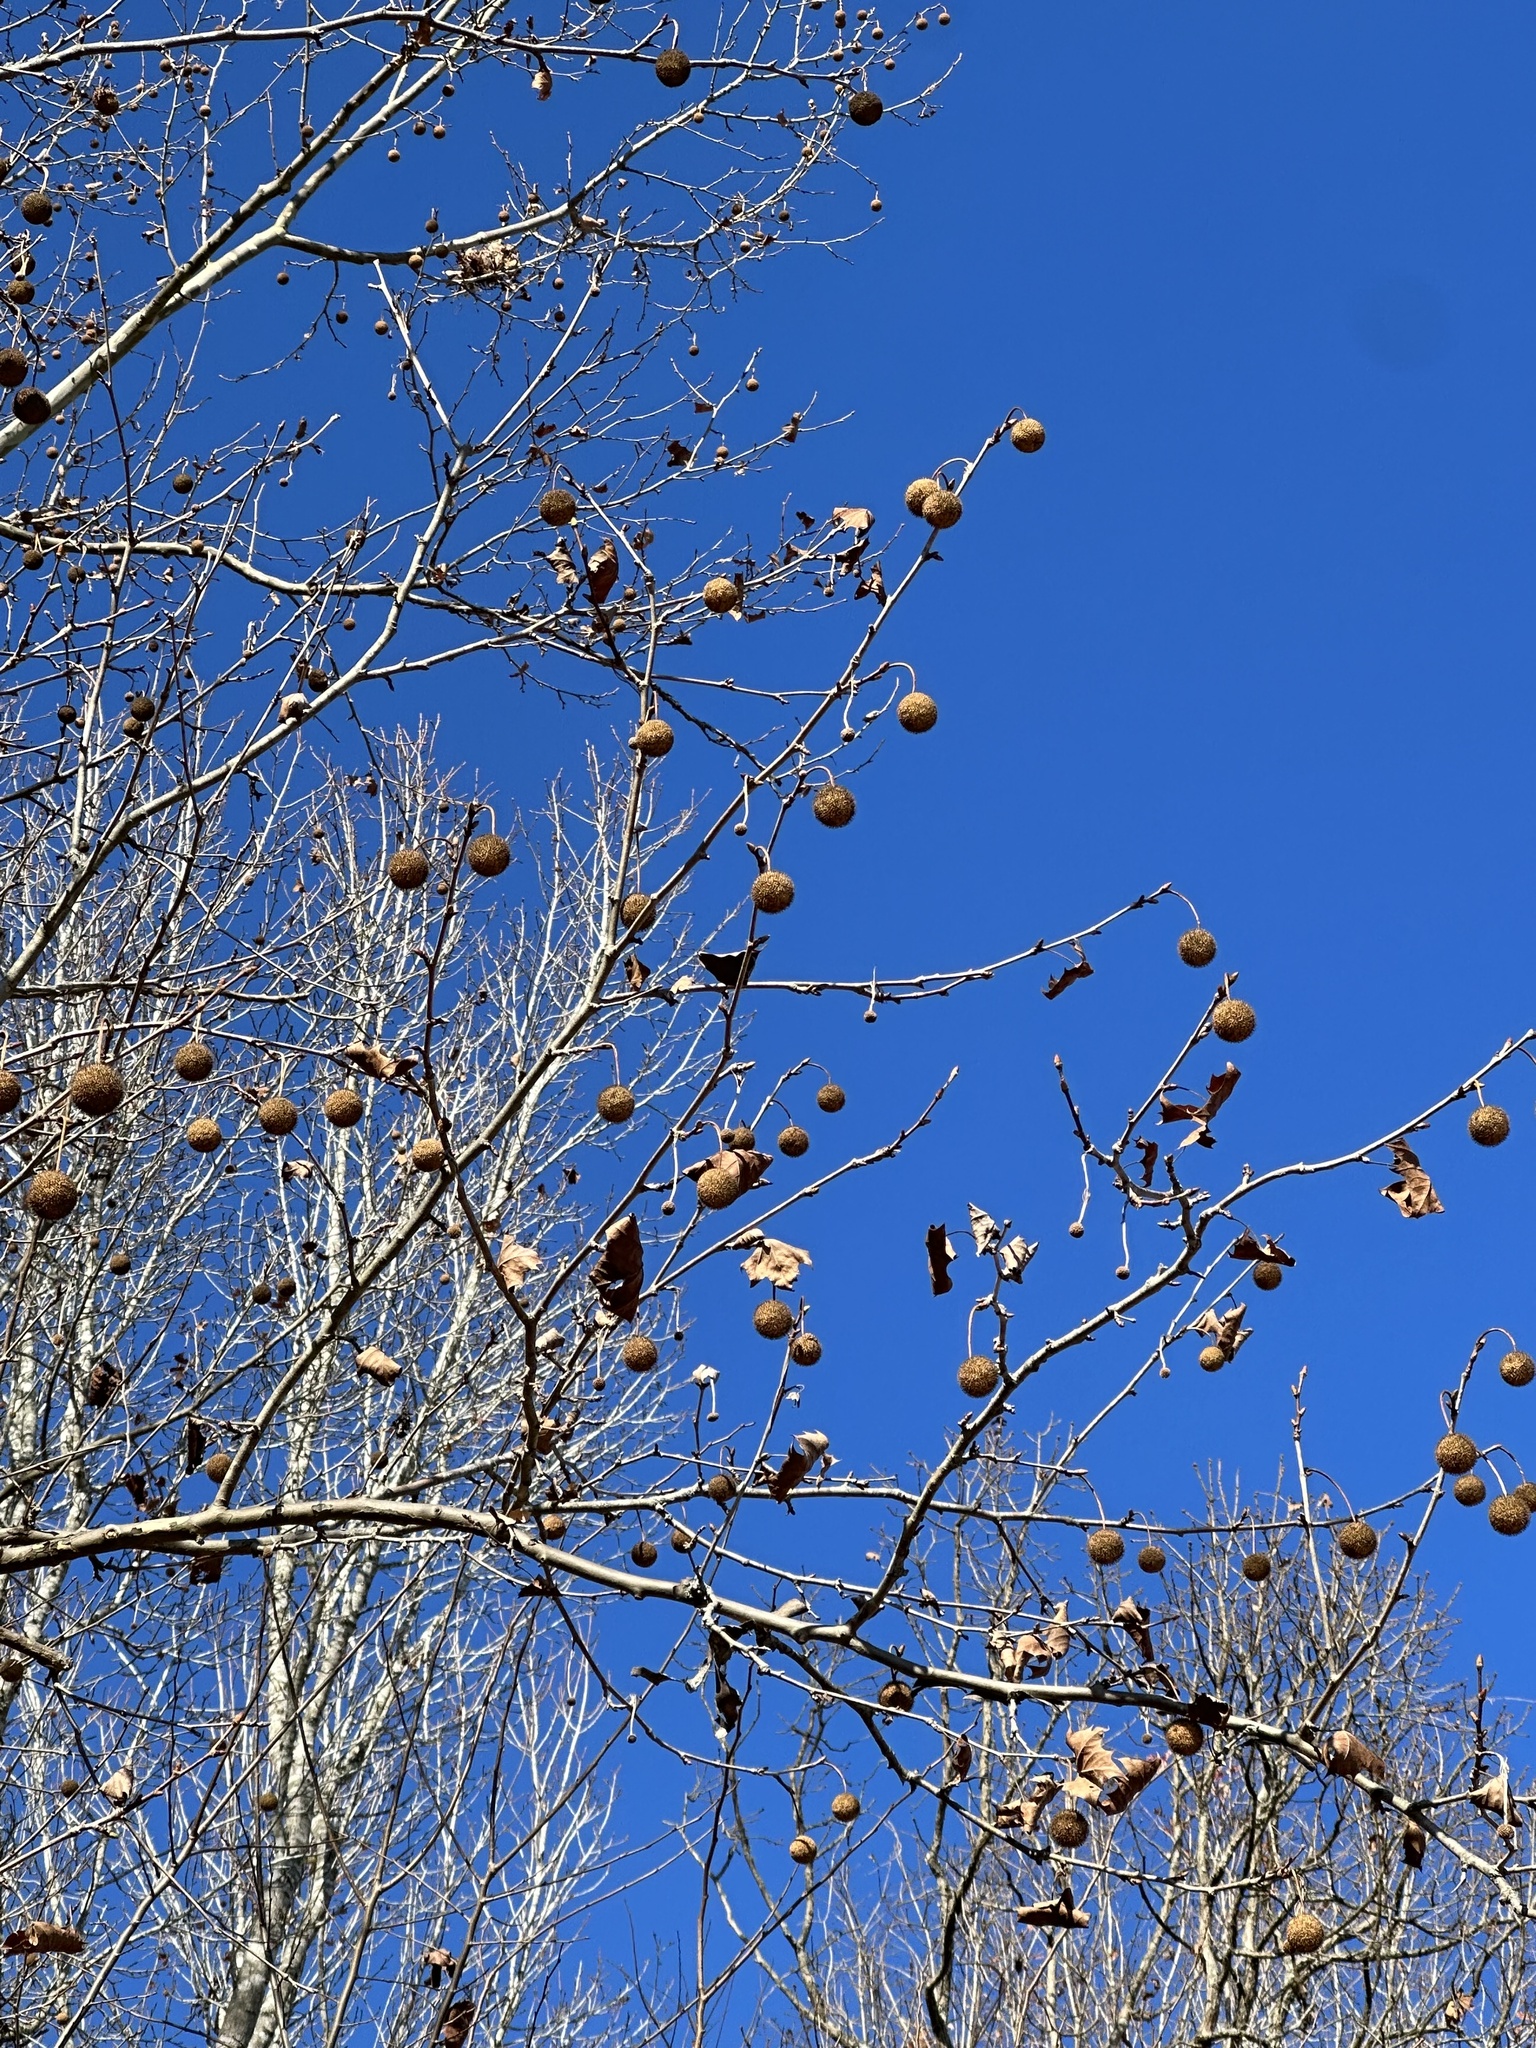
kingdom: Plantae
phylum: Tracheophyta
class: Magnoliopsida
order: Proteales
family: Platanaceae
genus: Platanus
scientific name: Platanus occidentalis
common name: American sycamore
